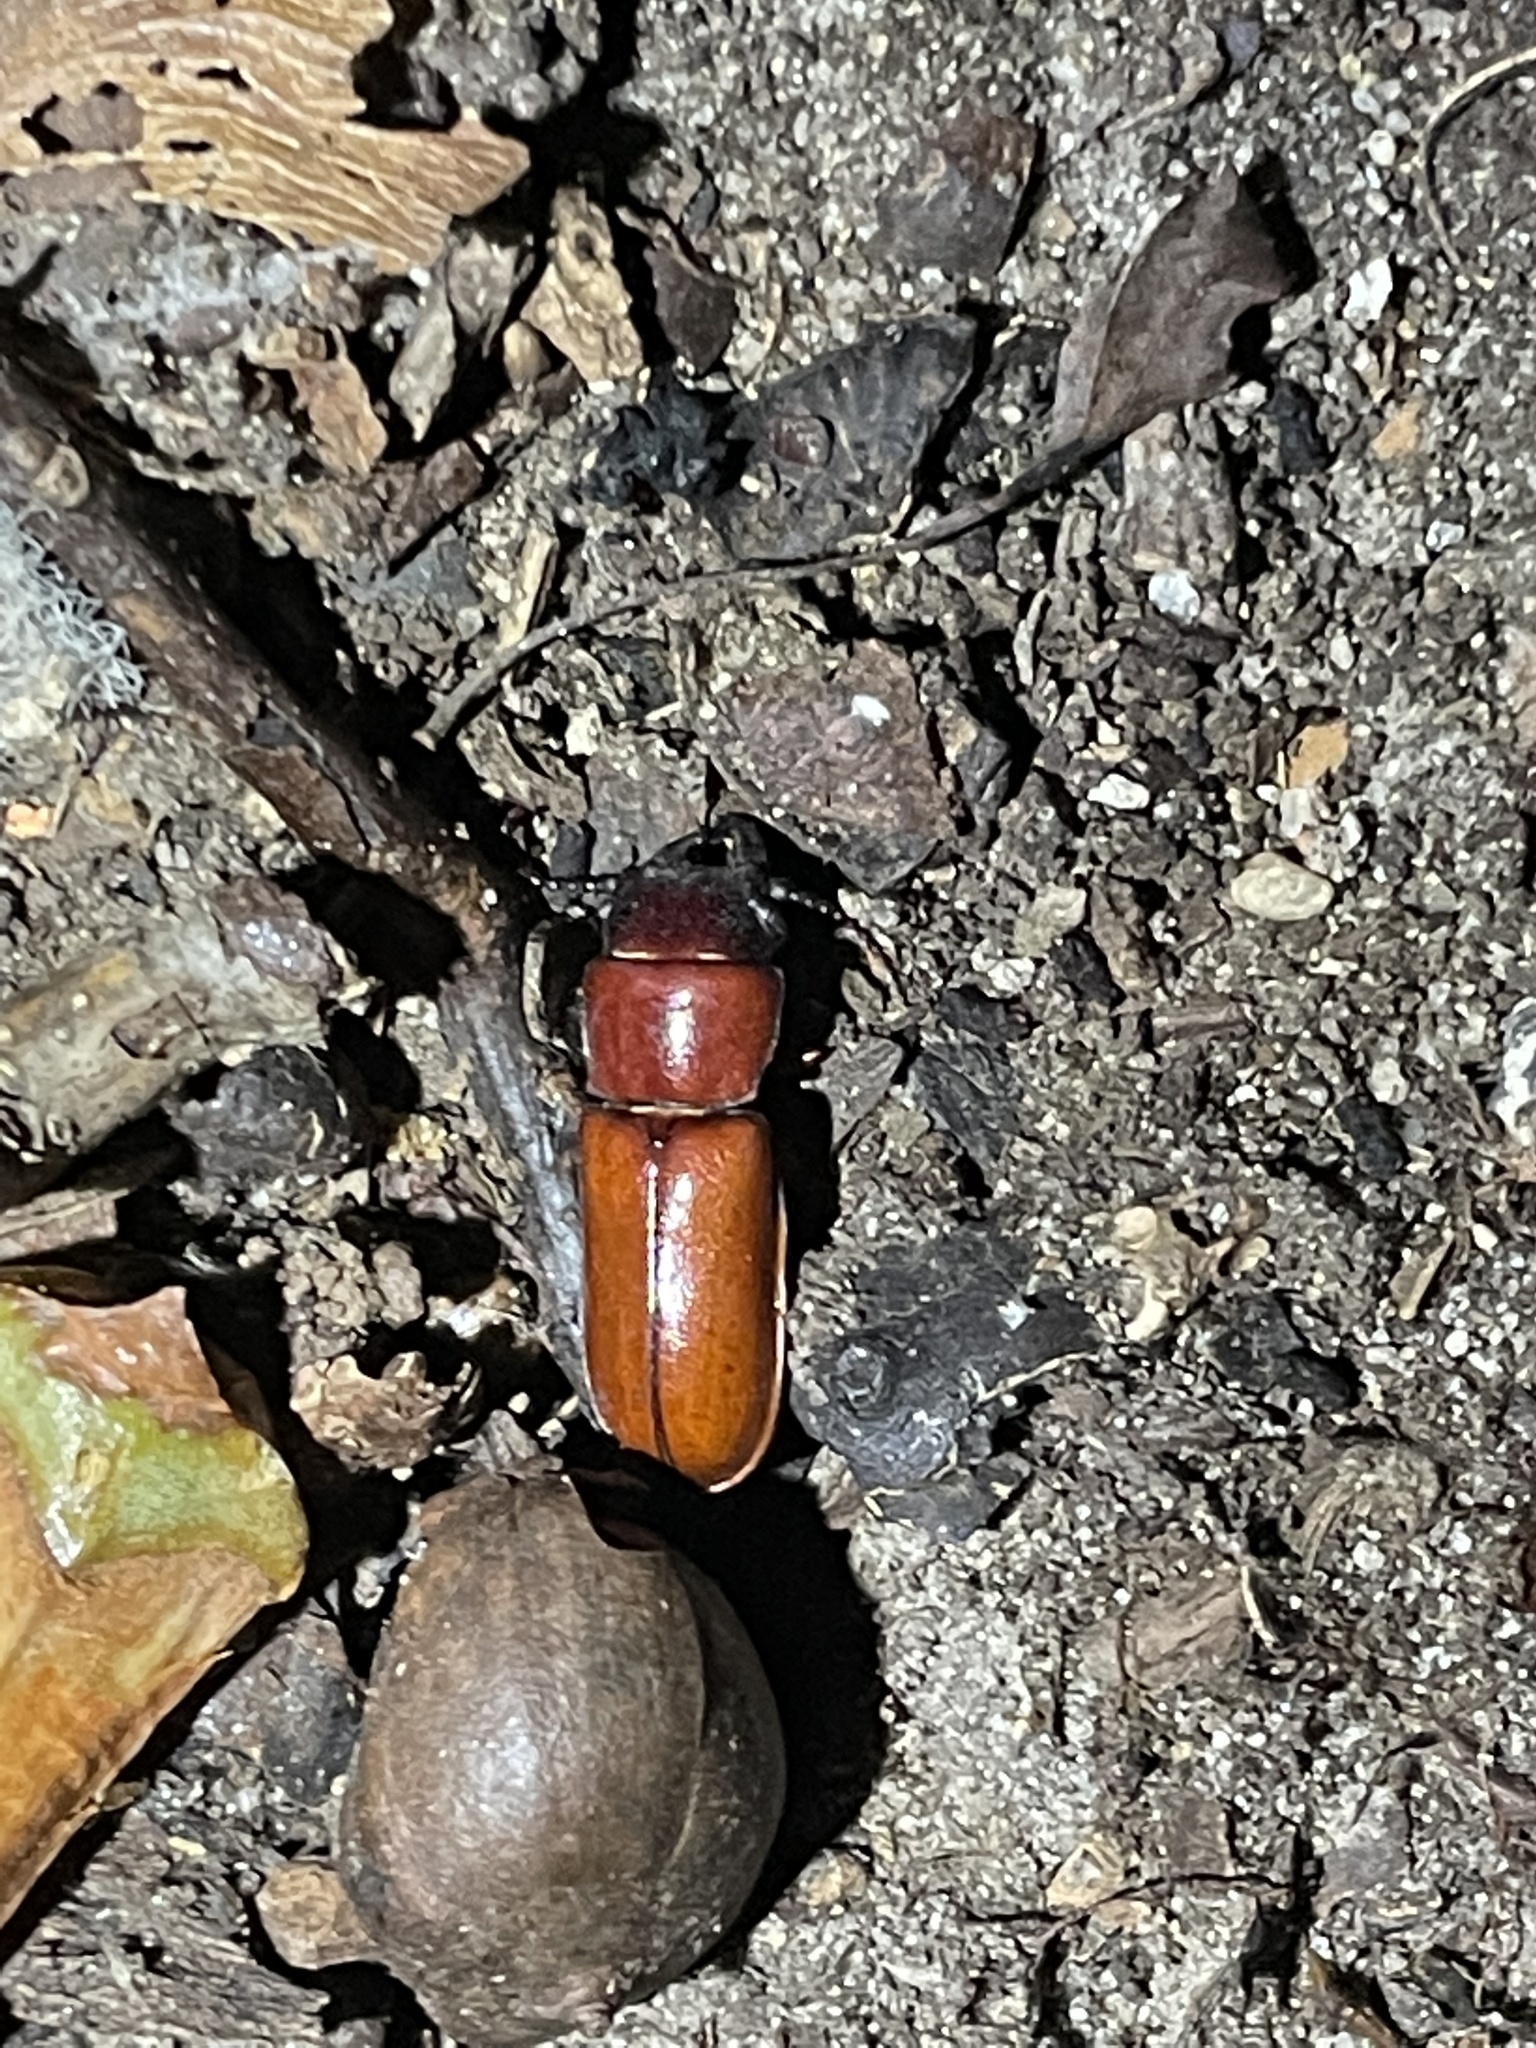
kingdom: Animalia
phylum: Arthropoda
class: Insecta
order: Coleoptera
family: Cerambycidae
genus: Neandra
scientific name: Neandra brunnea
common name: Pole borer
